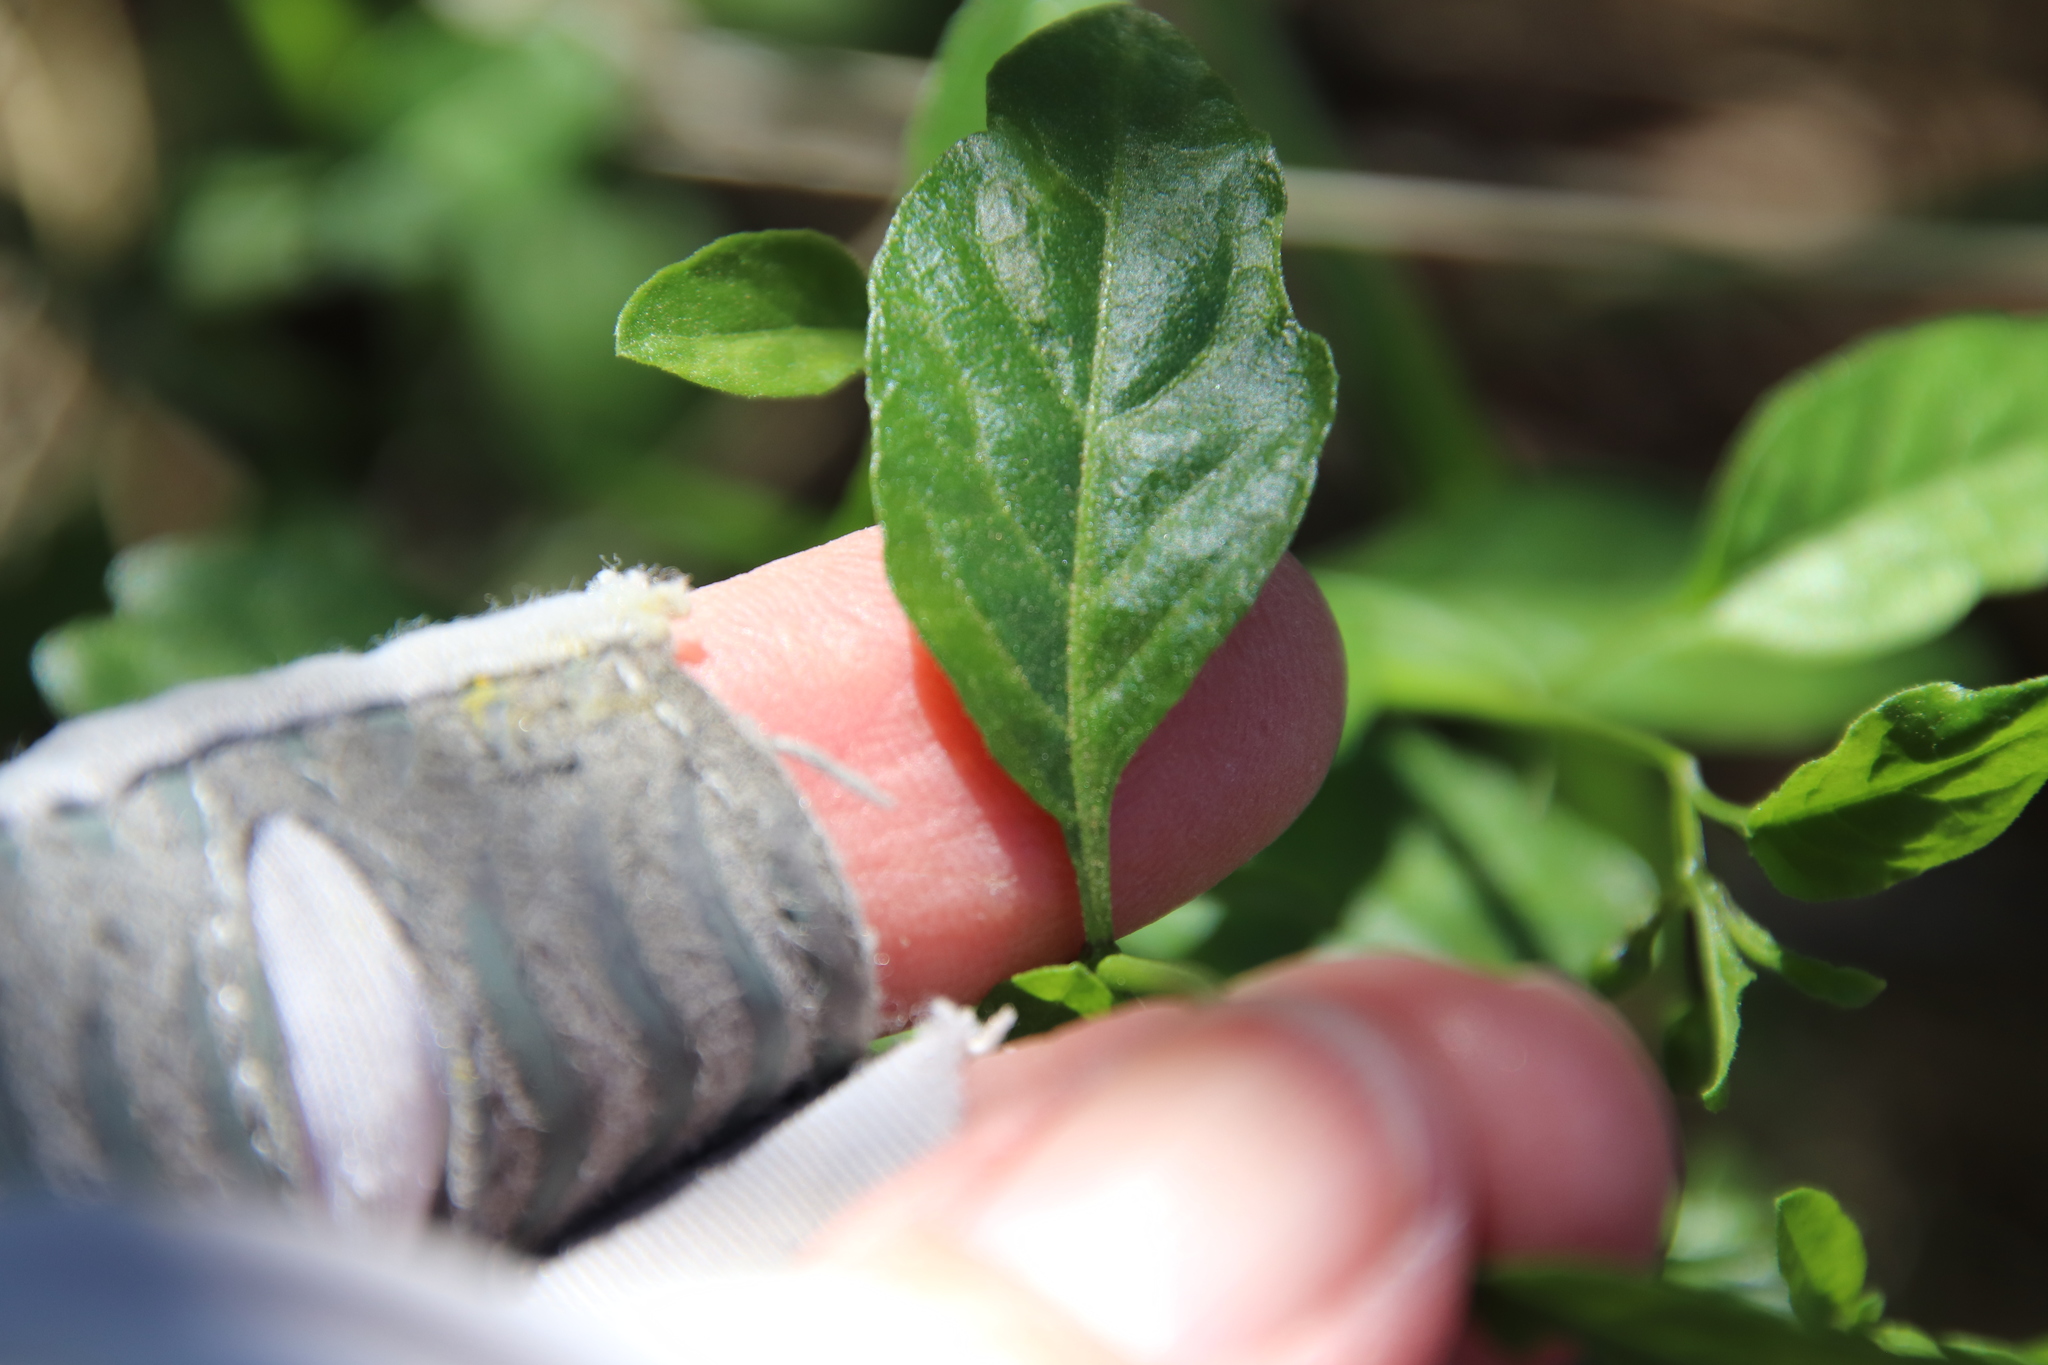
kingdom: Plantae
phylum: Tracheophyta
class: Magnoliopsida
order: Solanales
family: Solanaceae
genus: Solanum
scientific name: Solanum umbelliferum
